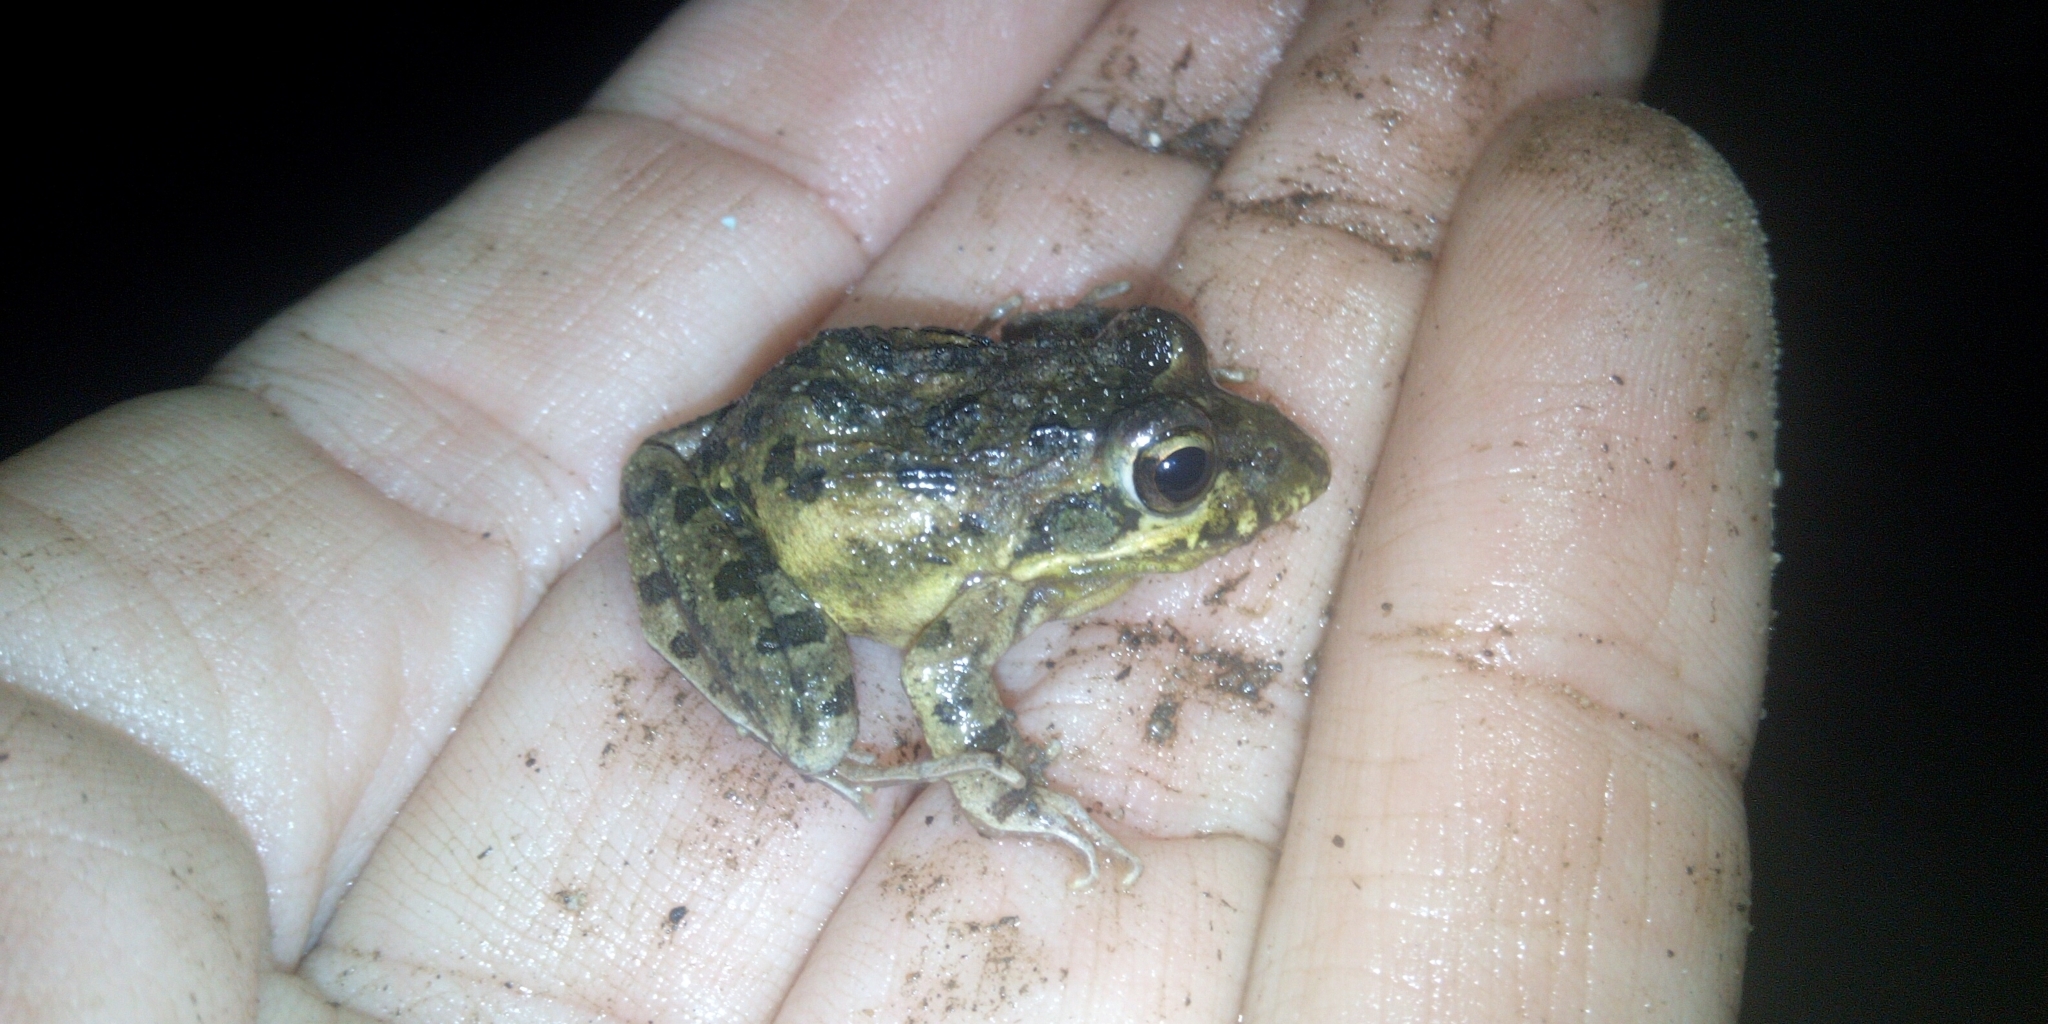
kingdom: Animalia
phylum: Chordata
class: Amphibia
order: Anura
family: Pyxicephalidae
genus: Strongylopus
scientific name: Strongylopus grayii
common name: Gray's stream frog
